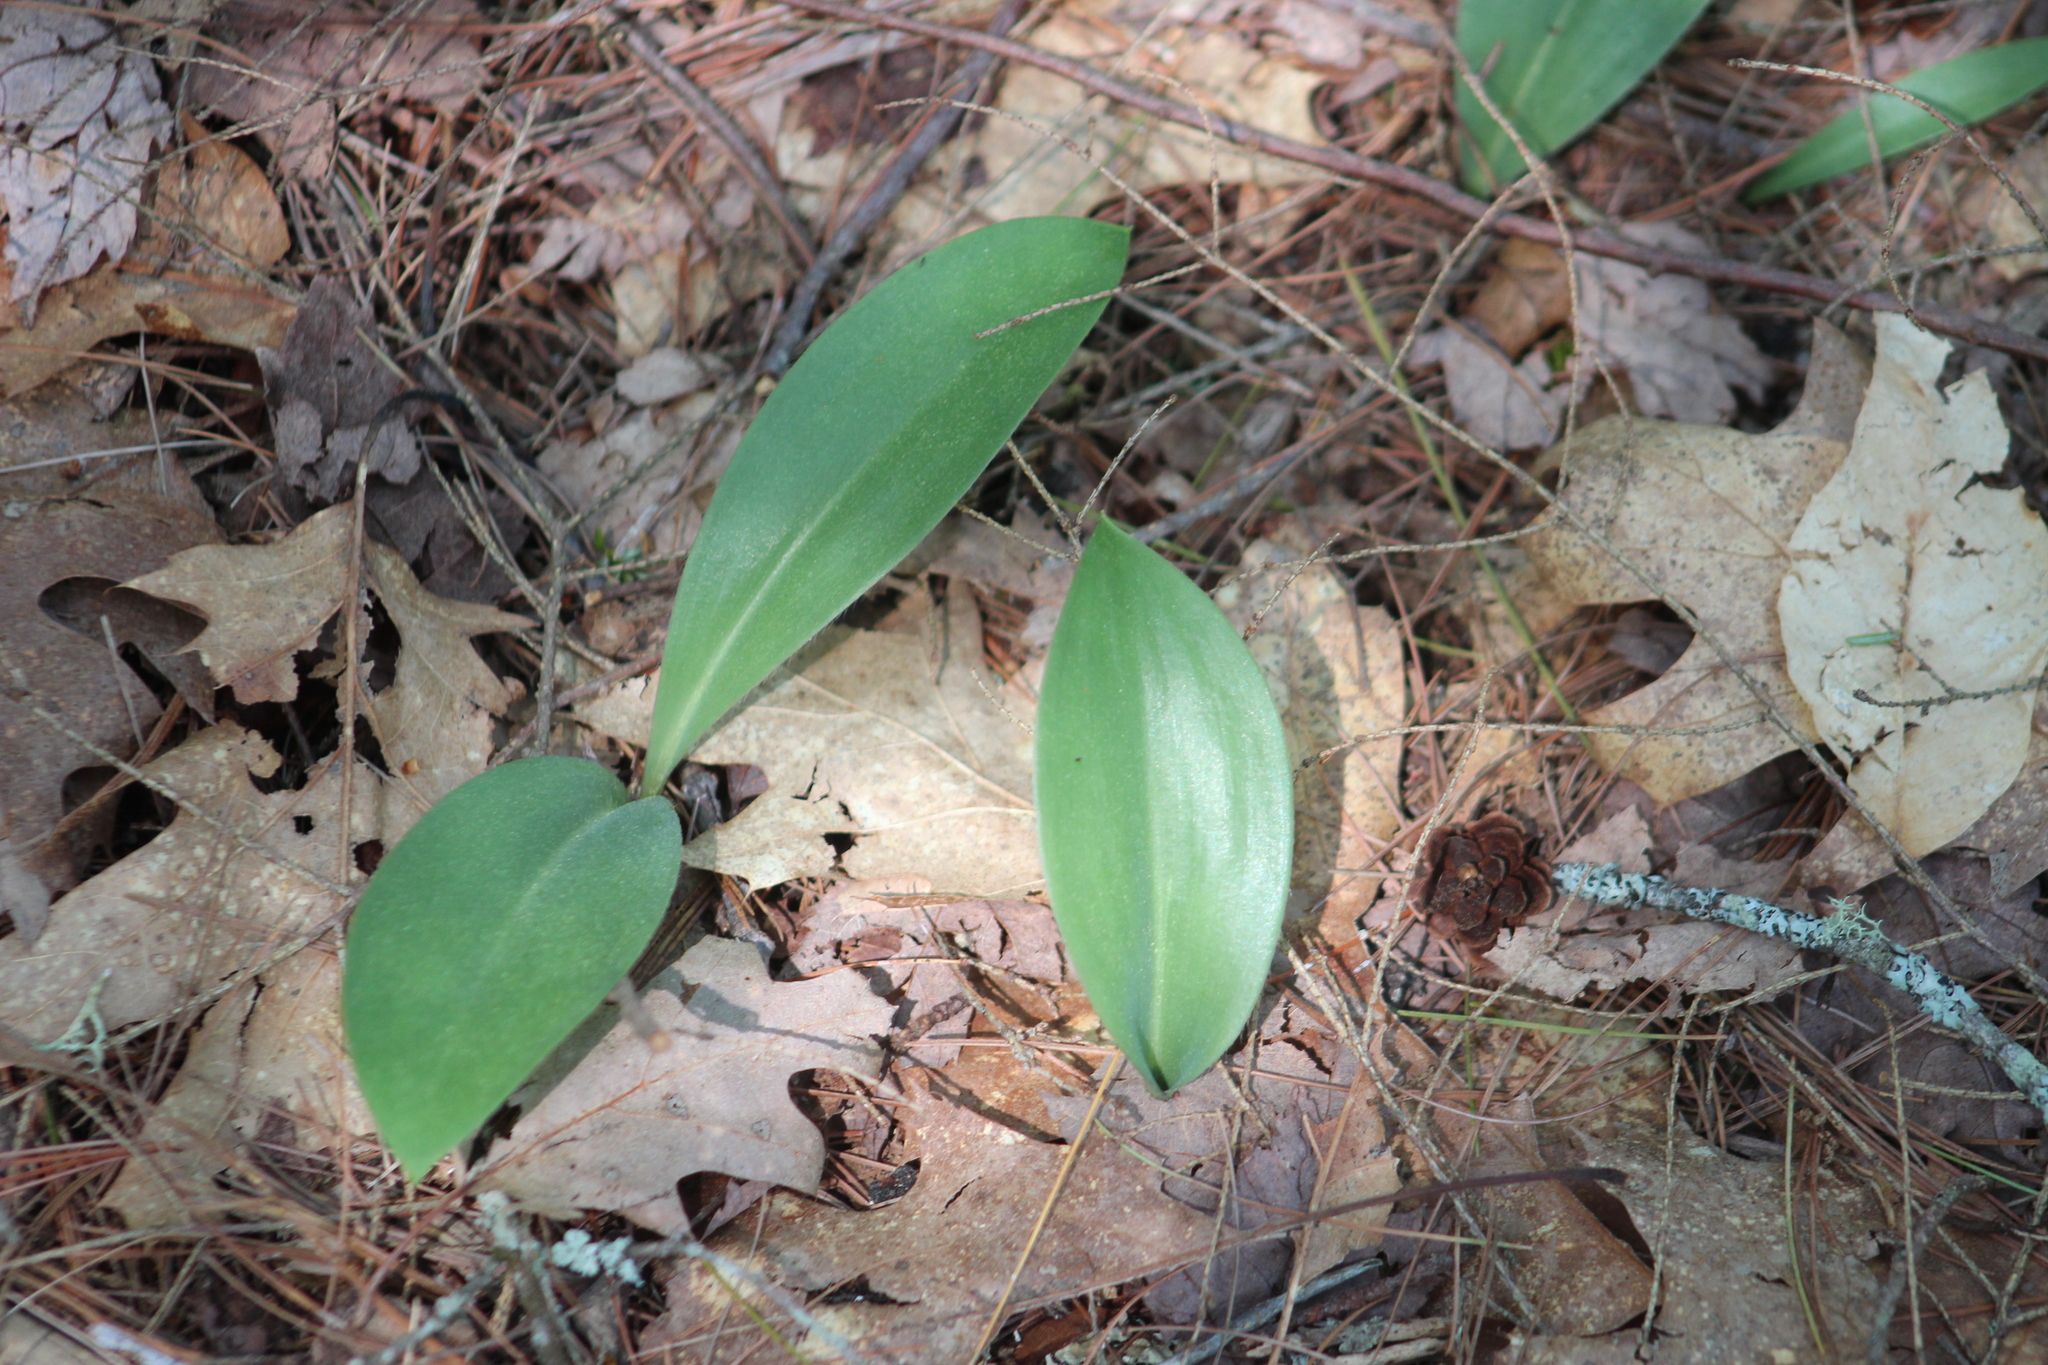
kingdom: Plantae
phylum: Tracheophyta
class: Liliopsida
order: Liliales
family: Liliaceae
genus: Clintonia
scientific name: Clintonia borealis
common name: Yellow clintonia
